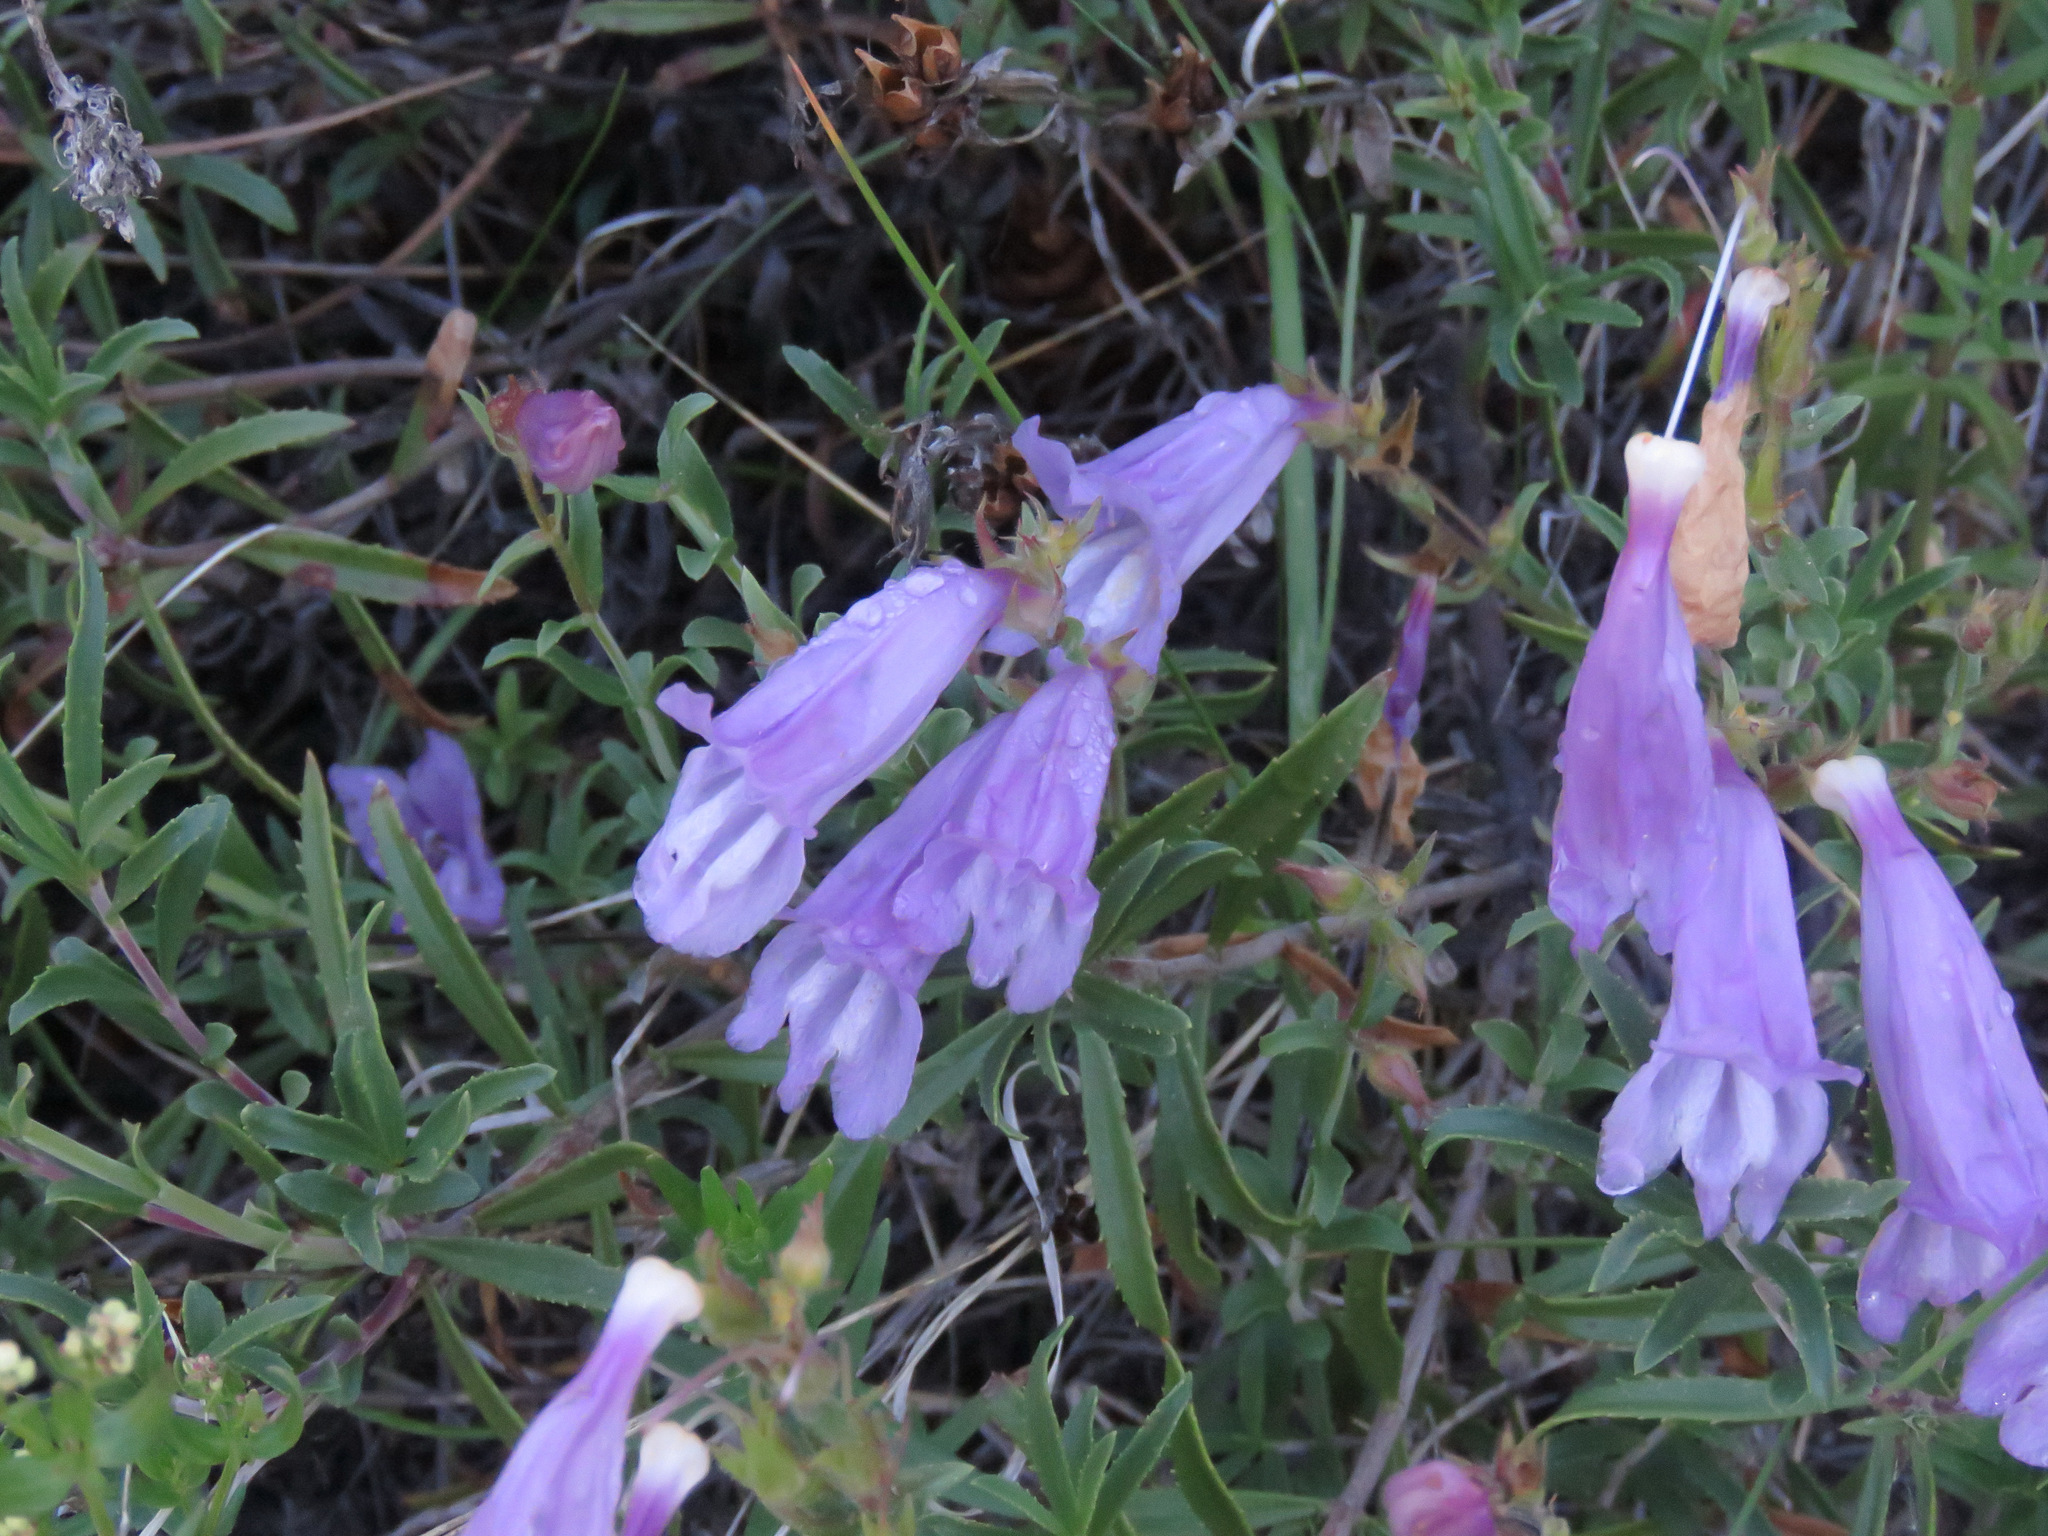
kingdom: Plantae
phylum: Tracheophyta
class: Magnoliopsida
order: Lamiales
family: Plantaginaceae
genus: Penstemon
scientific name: Penstemon fruticosus
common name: Bush penstemon
